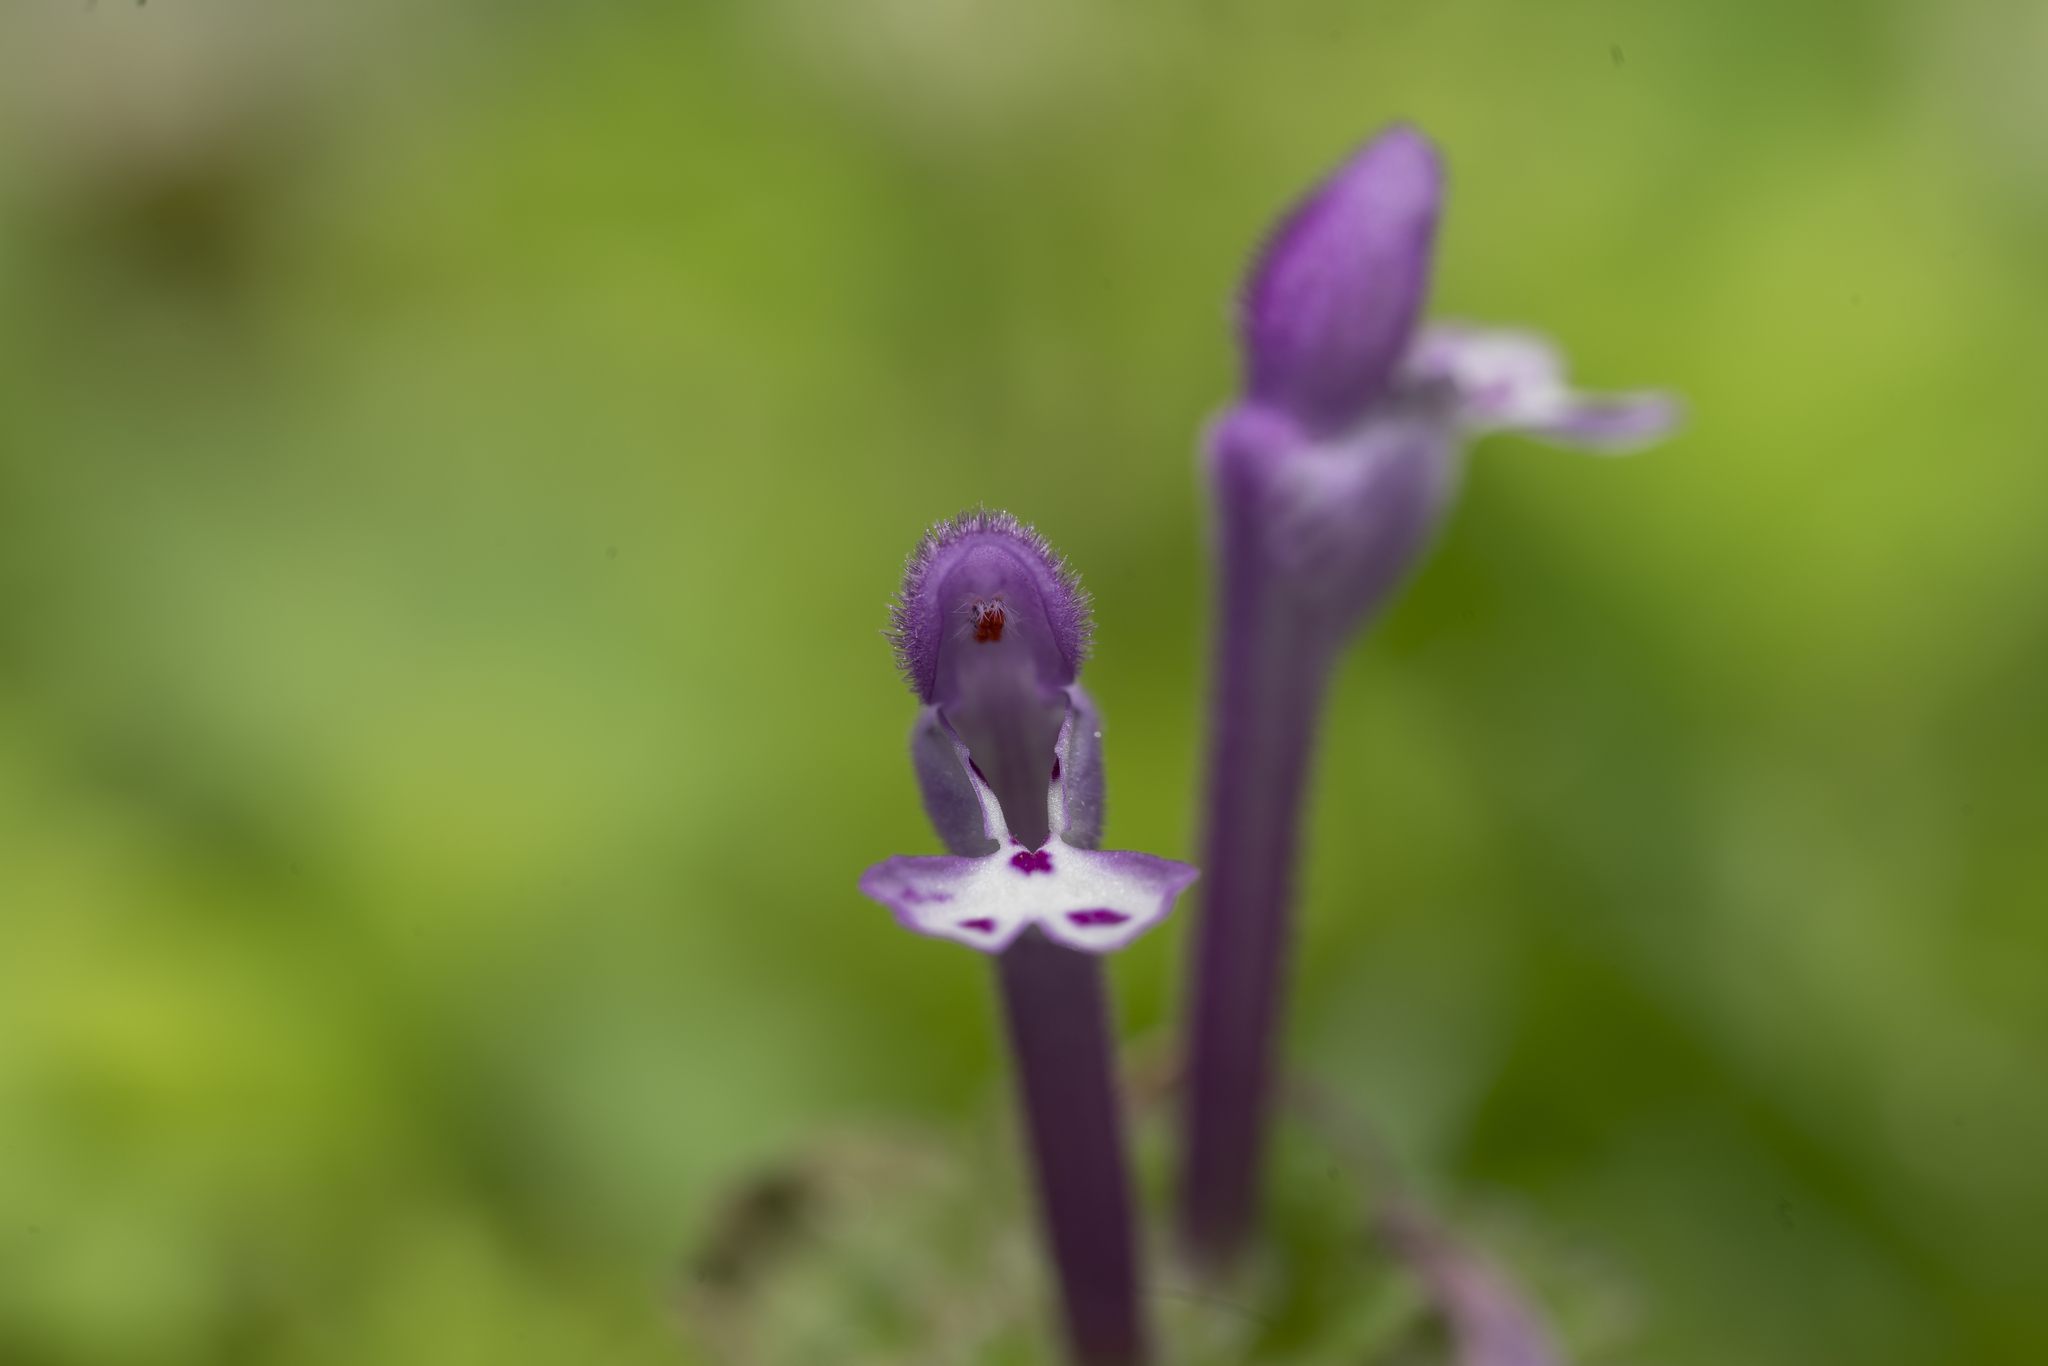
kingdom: Plantae
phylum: Tracheophyta
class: Magnoliopsida
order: Lamiales
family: Lamiaceae
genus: Lamium
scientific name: Lamium amplexicaule
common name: Henbit dead-nettle
